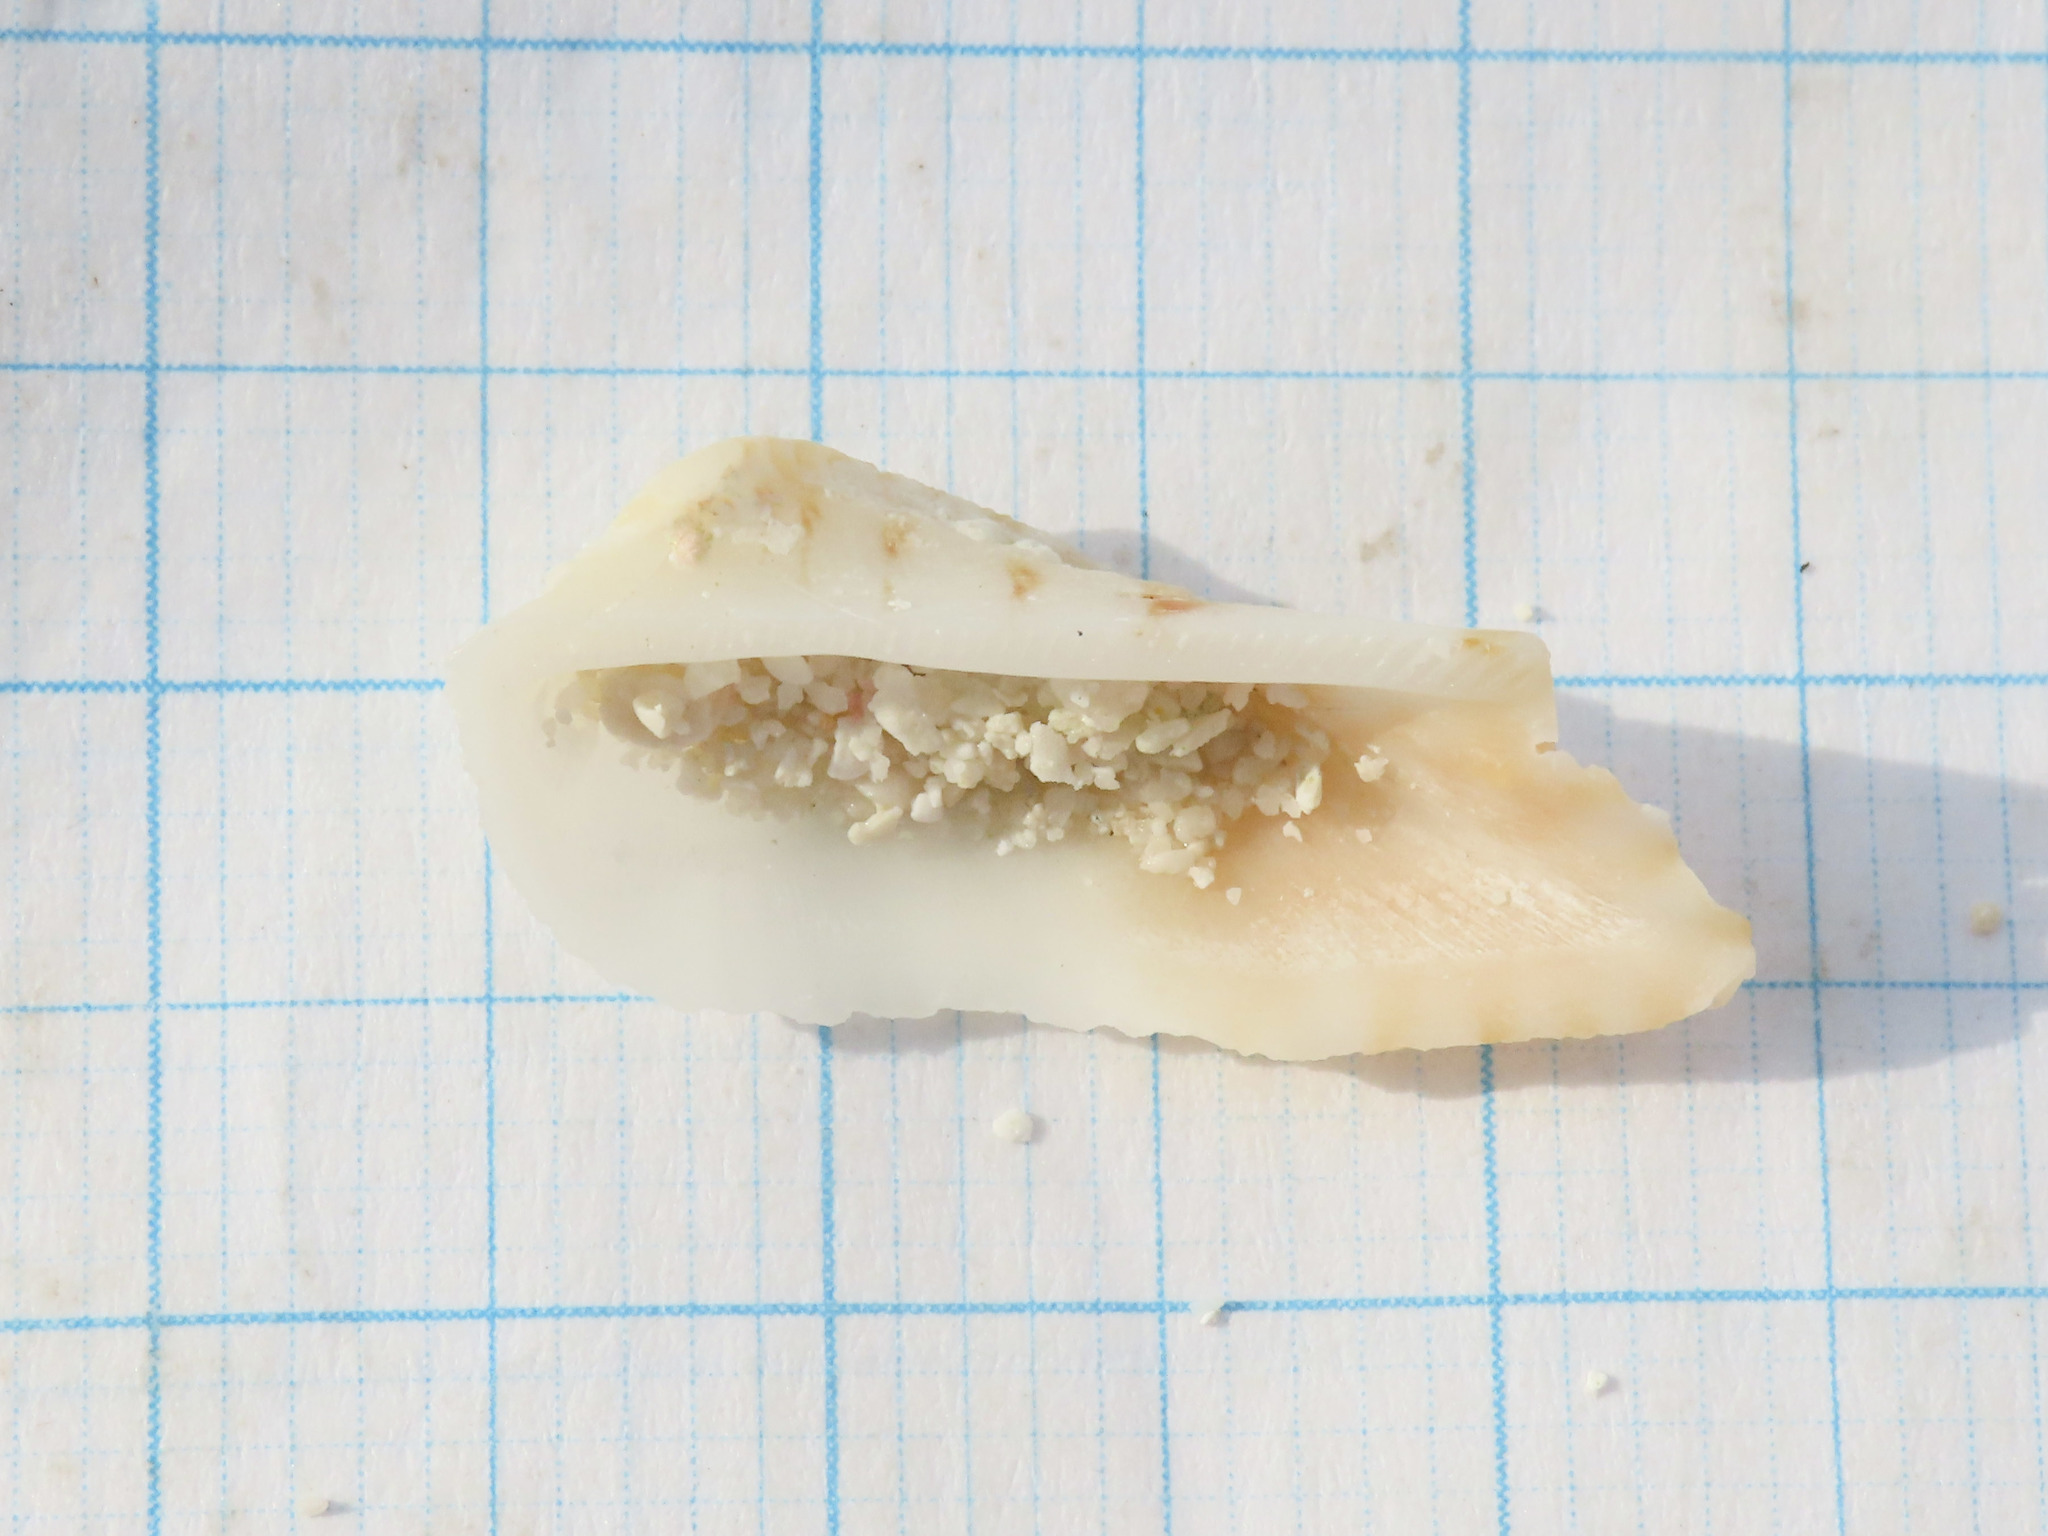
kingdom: Animalia
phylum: Mollusca
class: Bivalvia
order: Arcida
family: Arcidae
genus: Lamarcka
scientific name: Lamarcka ventricosa
